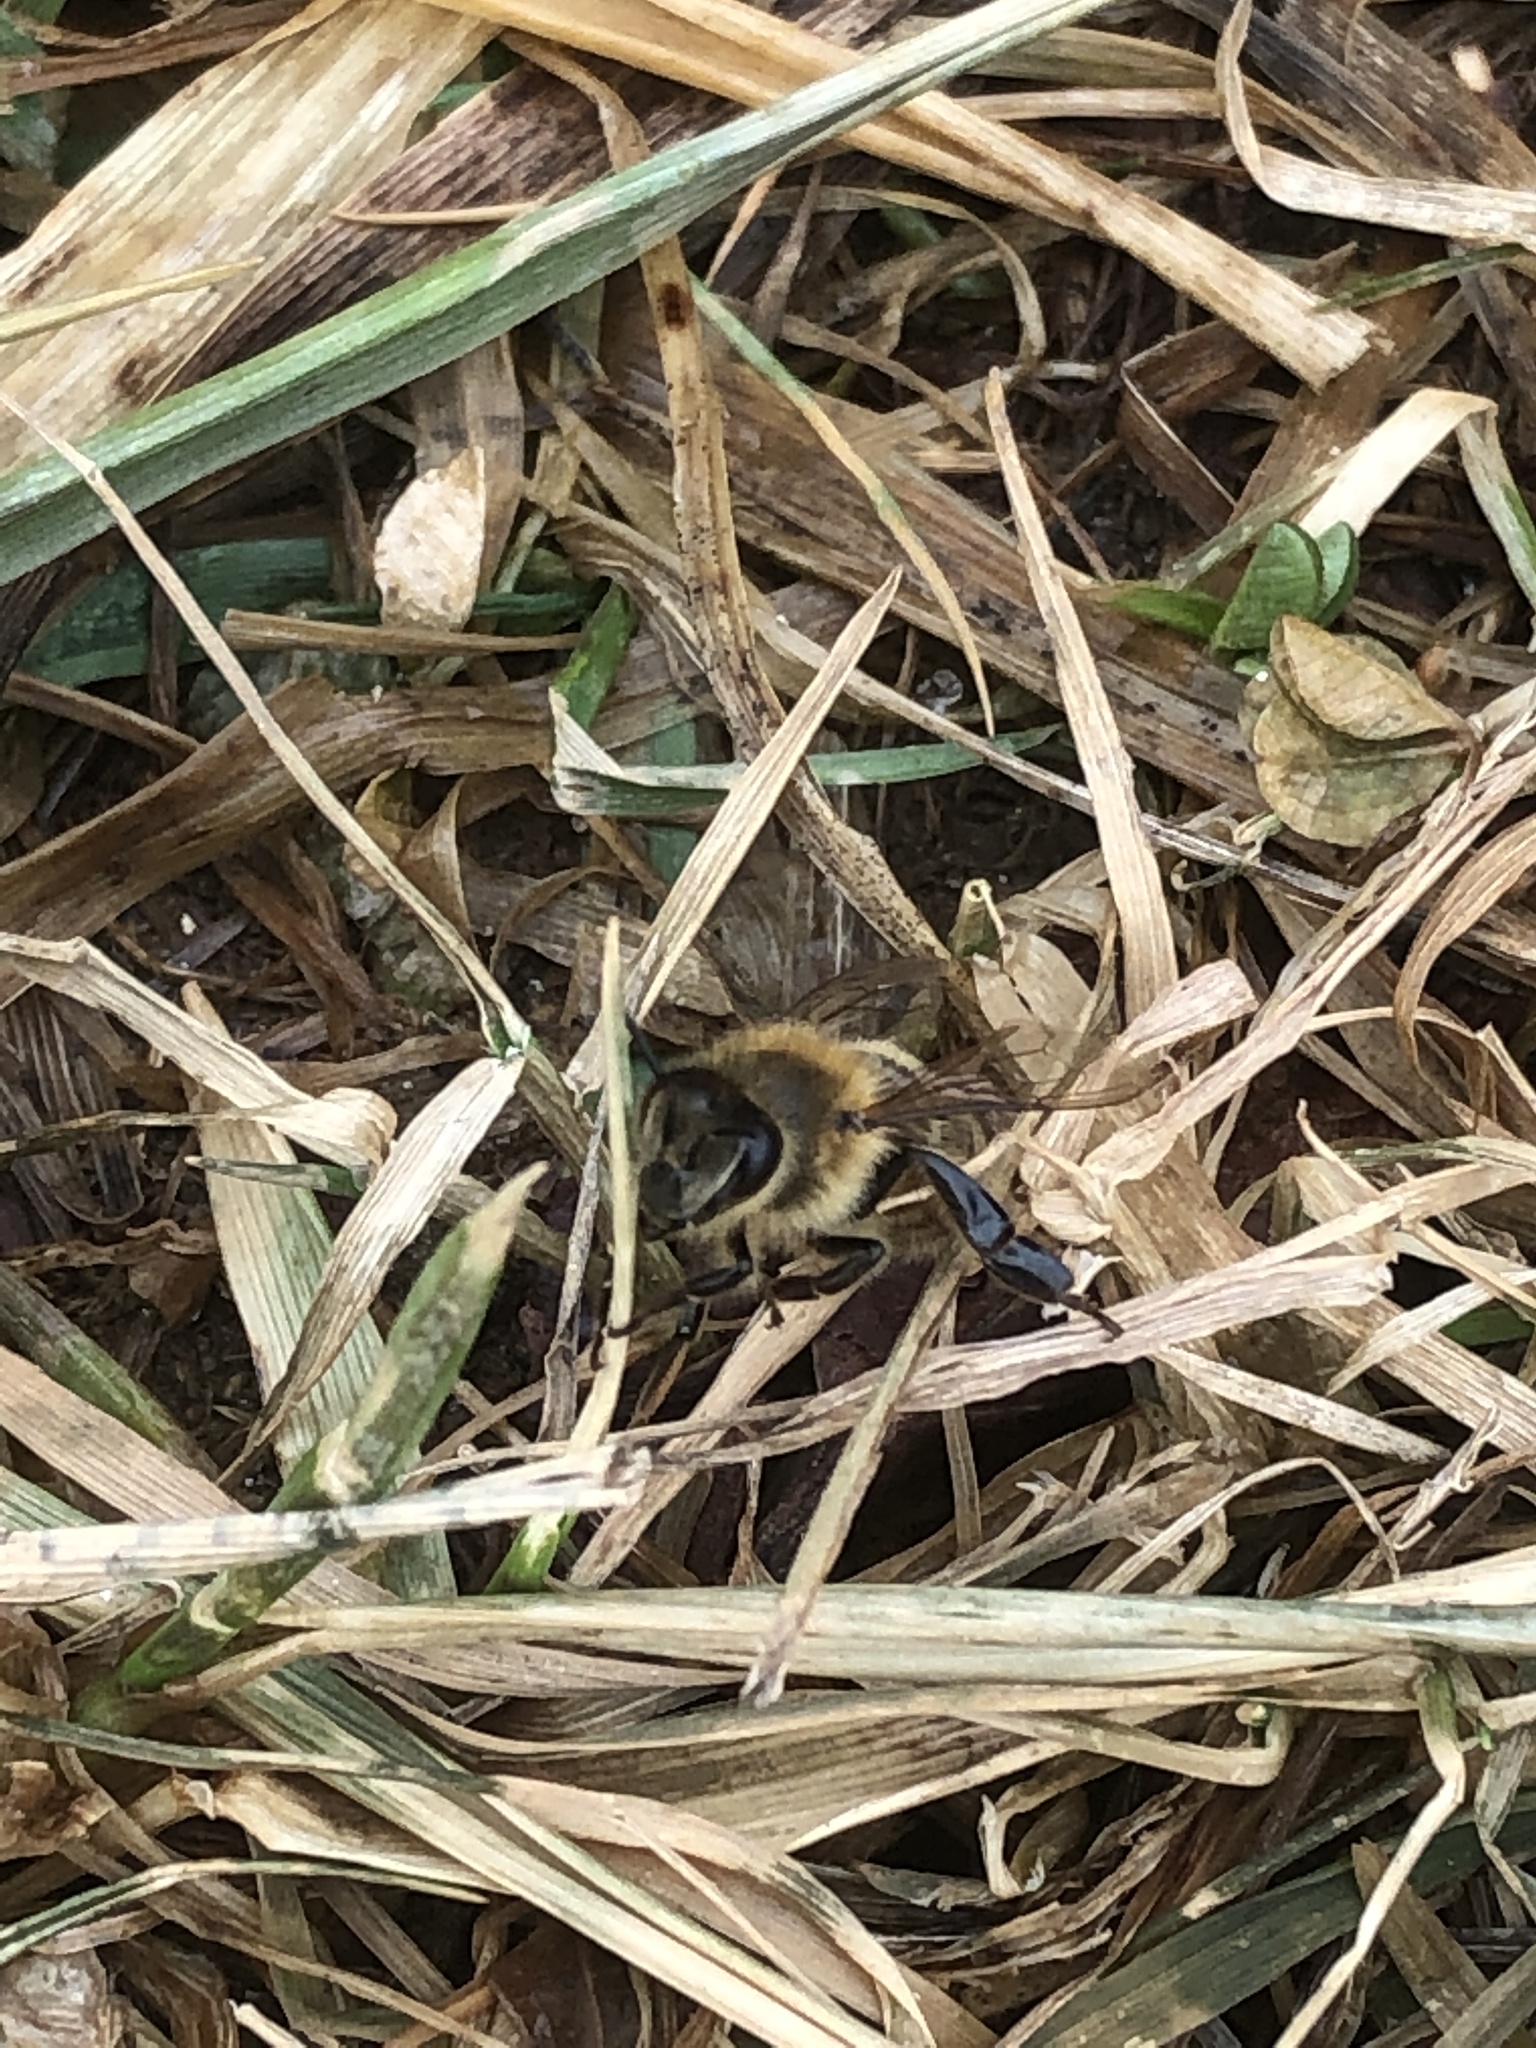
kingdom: Animalia
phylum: Arthropoda
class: Insecta
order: Hymenoptera
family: Apidae
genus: Apis
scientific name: Apis mellifera
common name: Honey bee
